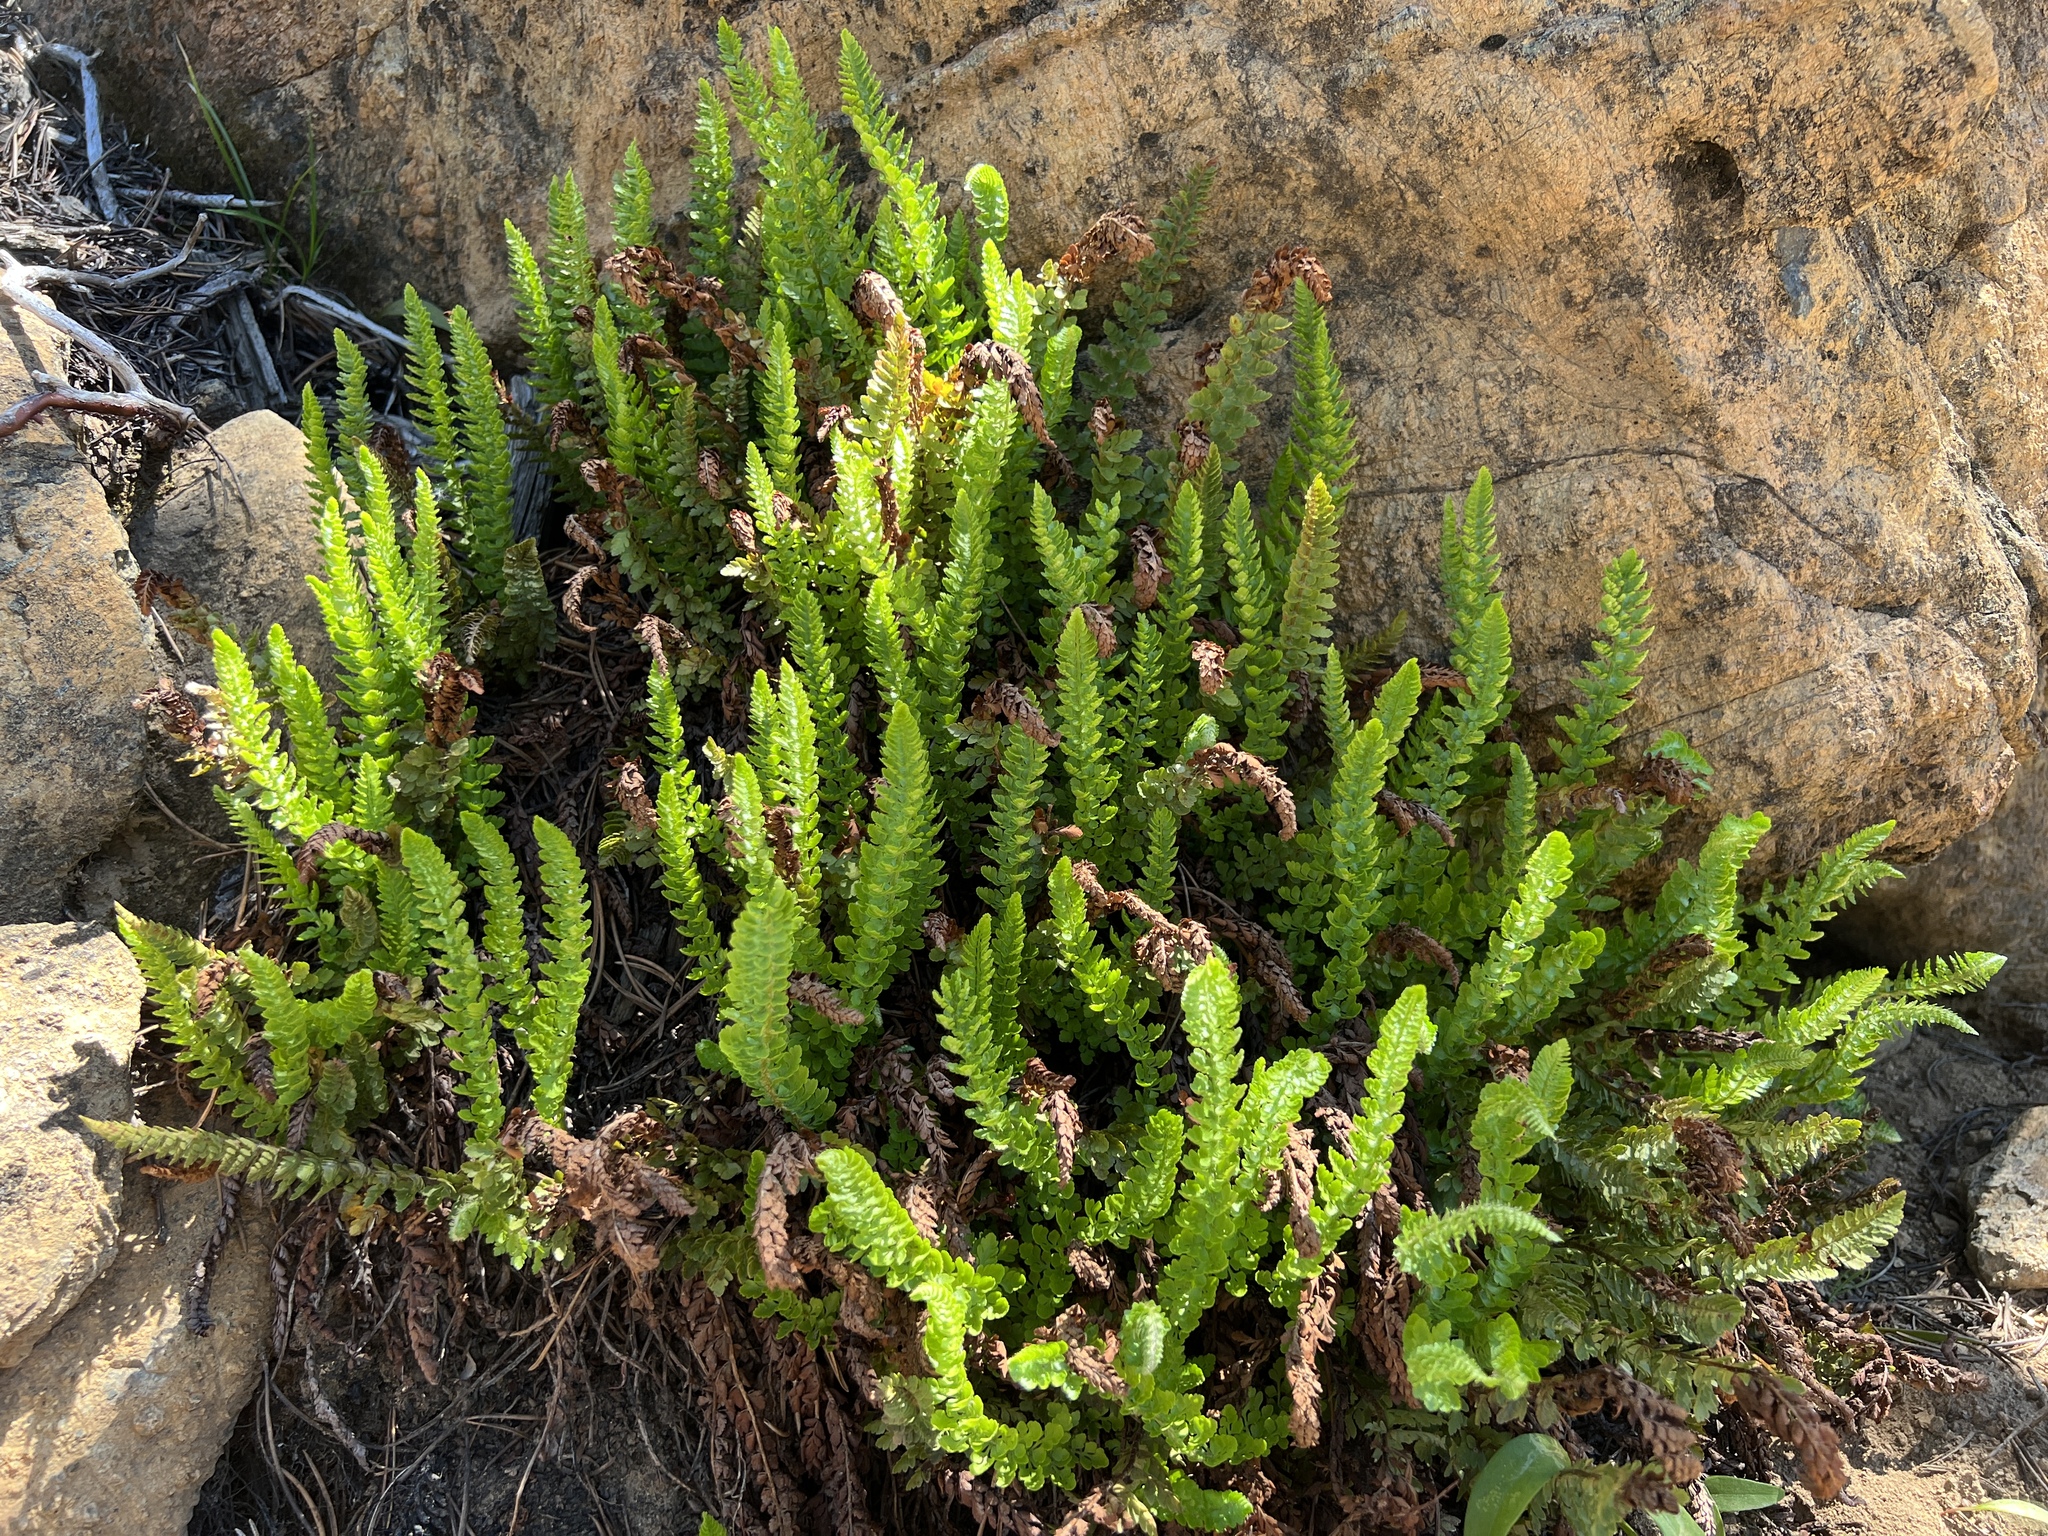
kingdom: Plantae
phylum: Tracheophyta
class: Polypodiopsida
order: Polypodiales
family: Dryopteridaceae
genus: Polystichum
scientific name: Polystichum lemmonii
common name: Lemmon's holly fern
